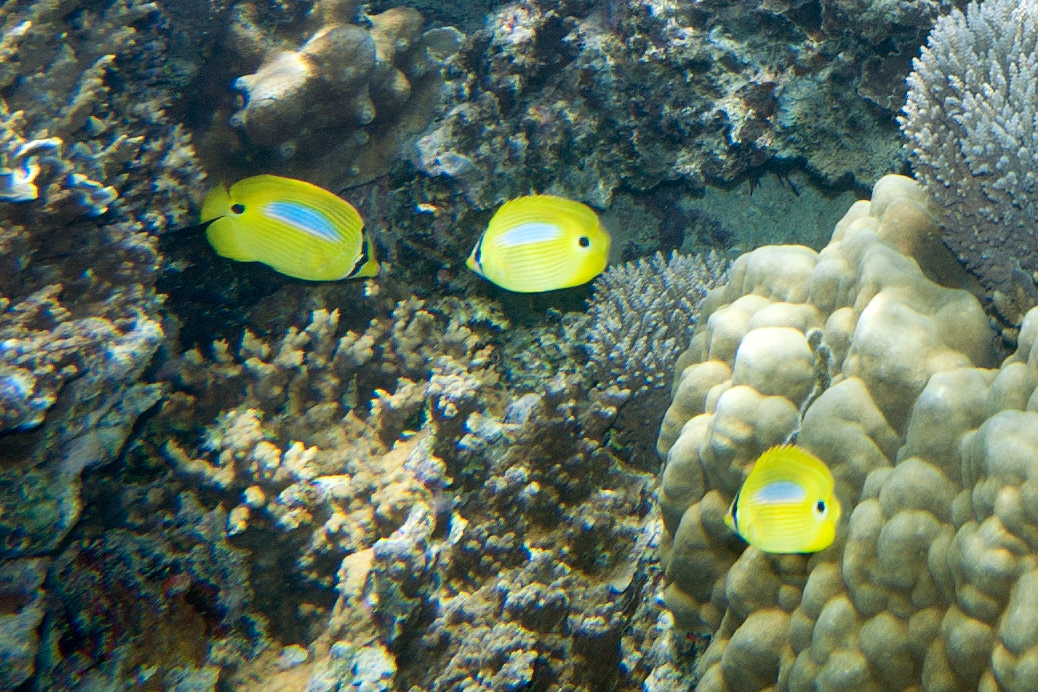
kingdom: Animalia
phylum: Chordata
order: Perciformes
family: Chaetodontidae
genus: Chaetodon
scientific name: Chaetodon plebeius
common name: Bluespot butterflyfish
